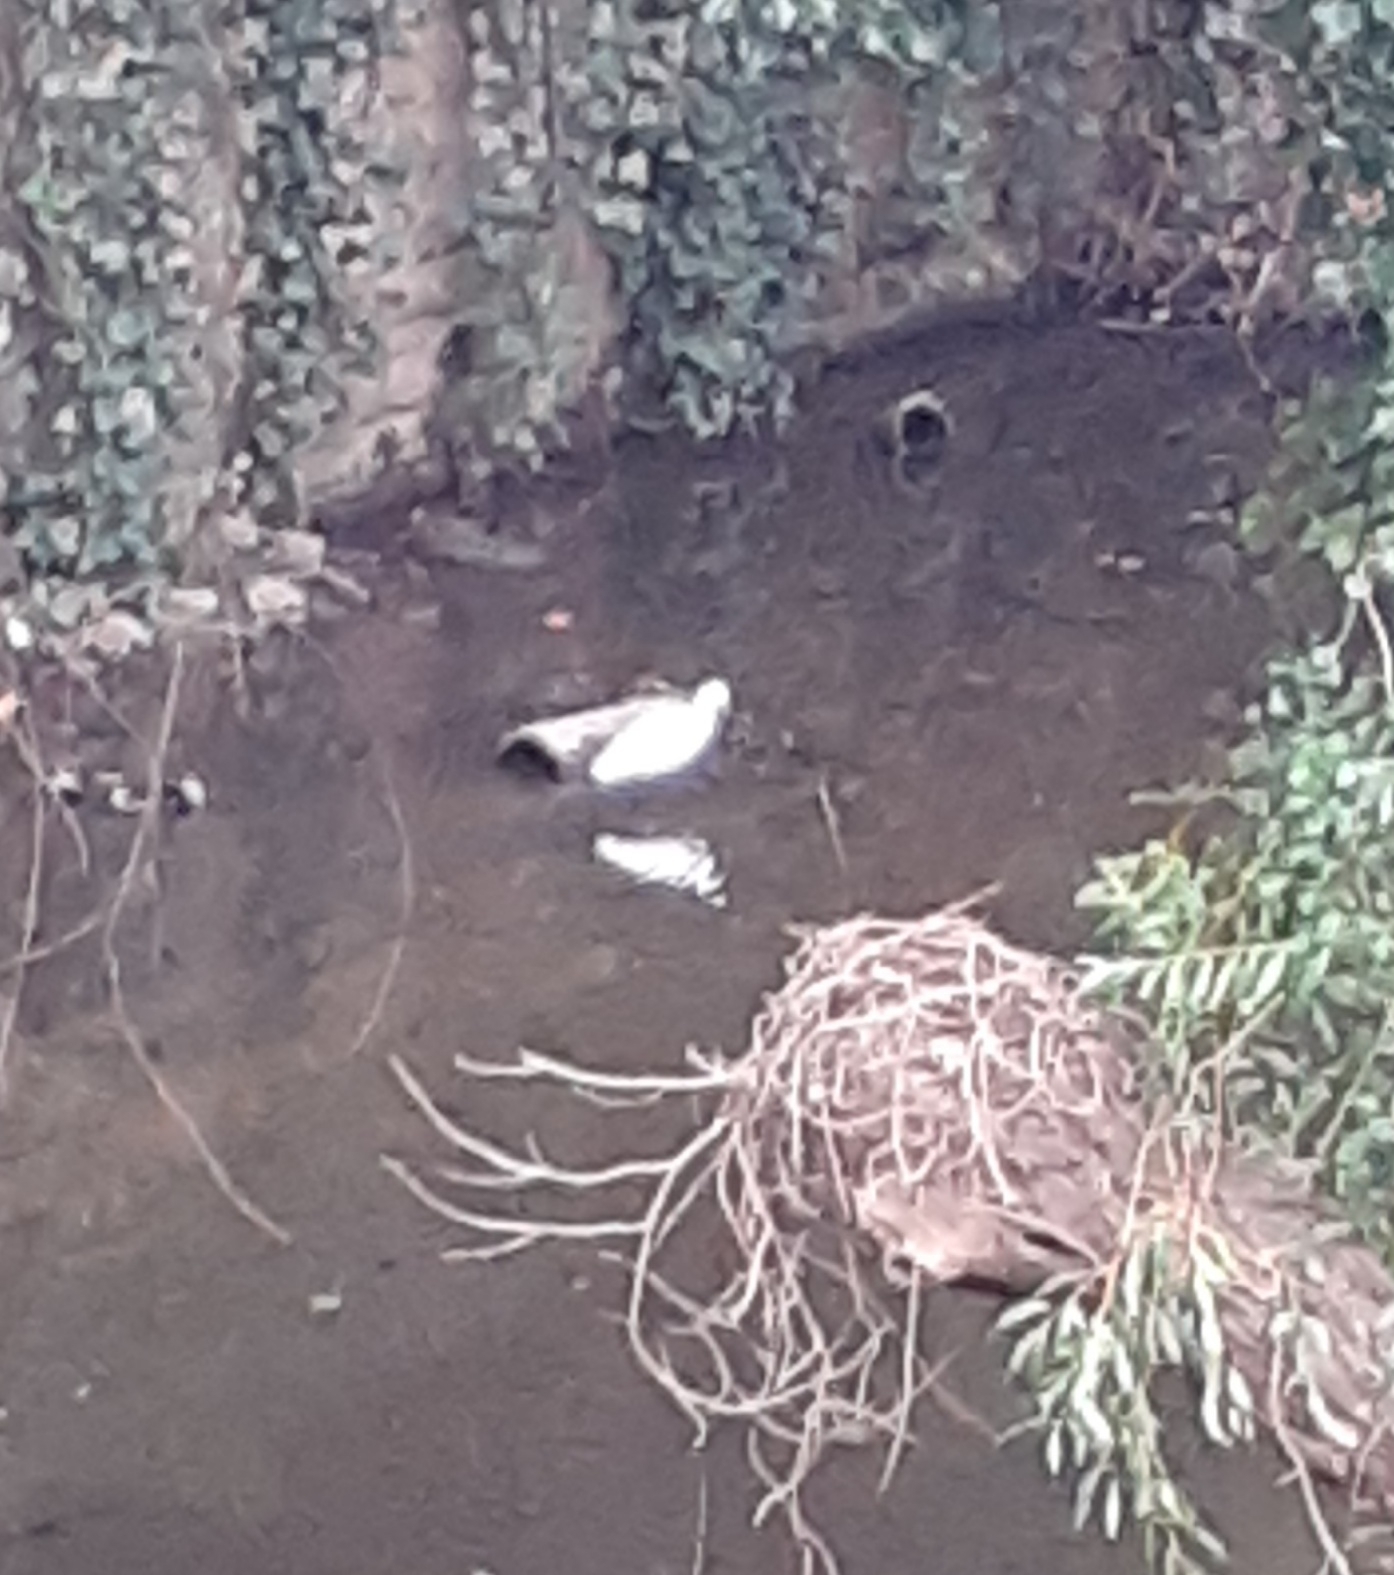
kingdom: Animalia
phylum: Chordata
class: Aves
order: Pelecaniformes
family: Ardeidae
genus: Egretta
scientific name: Egretta garzetta
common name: Little egret
